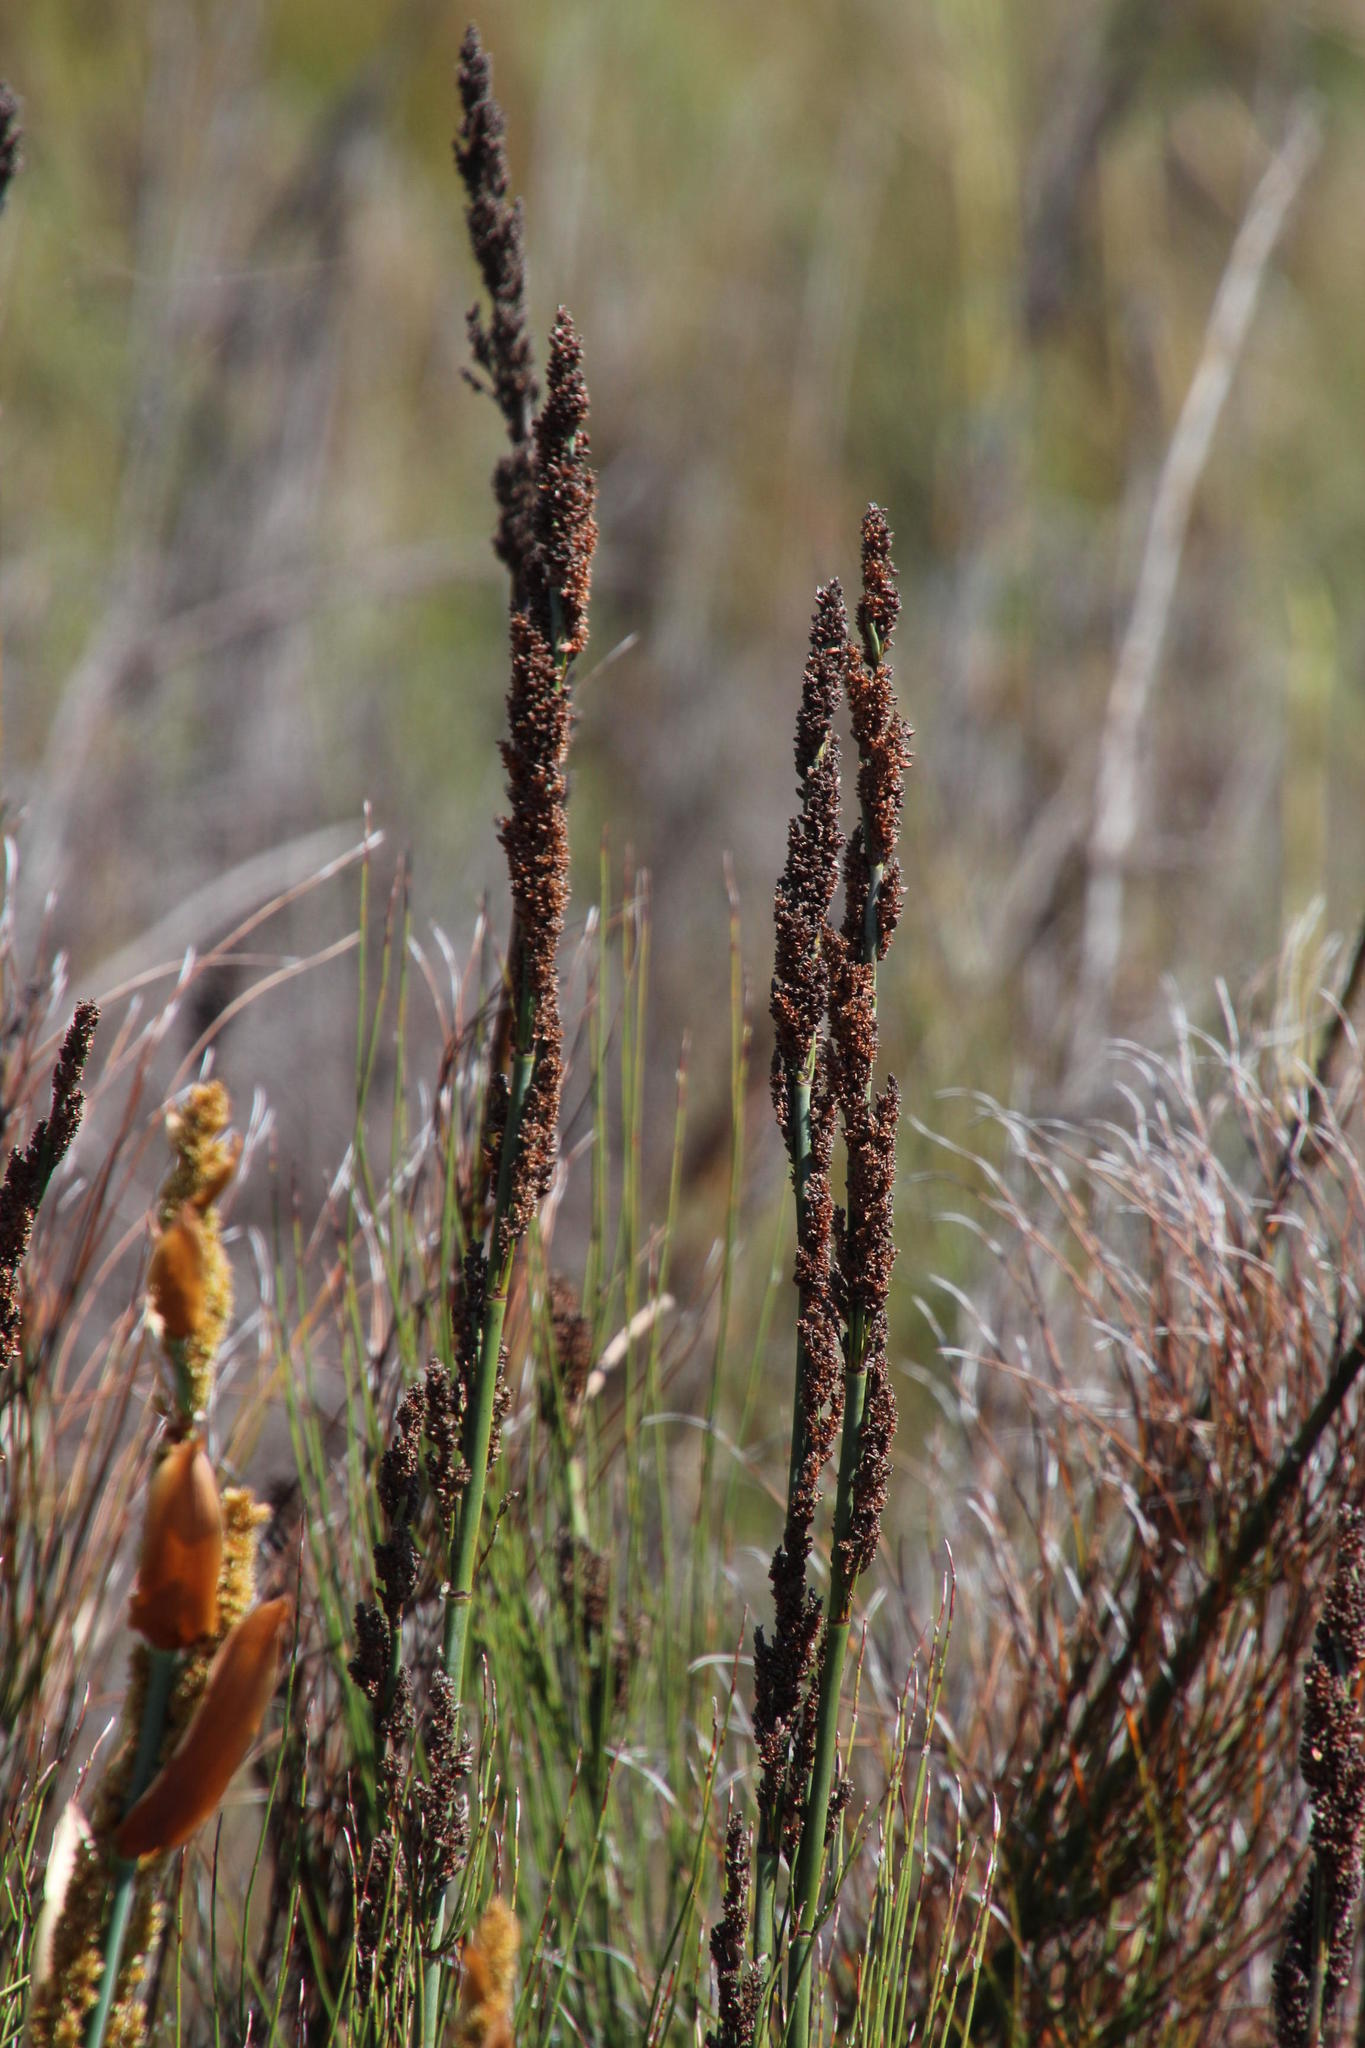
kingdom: Plantae
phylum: Tracheophyta
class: Liliopsida
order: Poales
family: Restionaceae
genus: Elegia
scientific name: Elegia capensis
